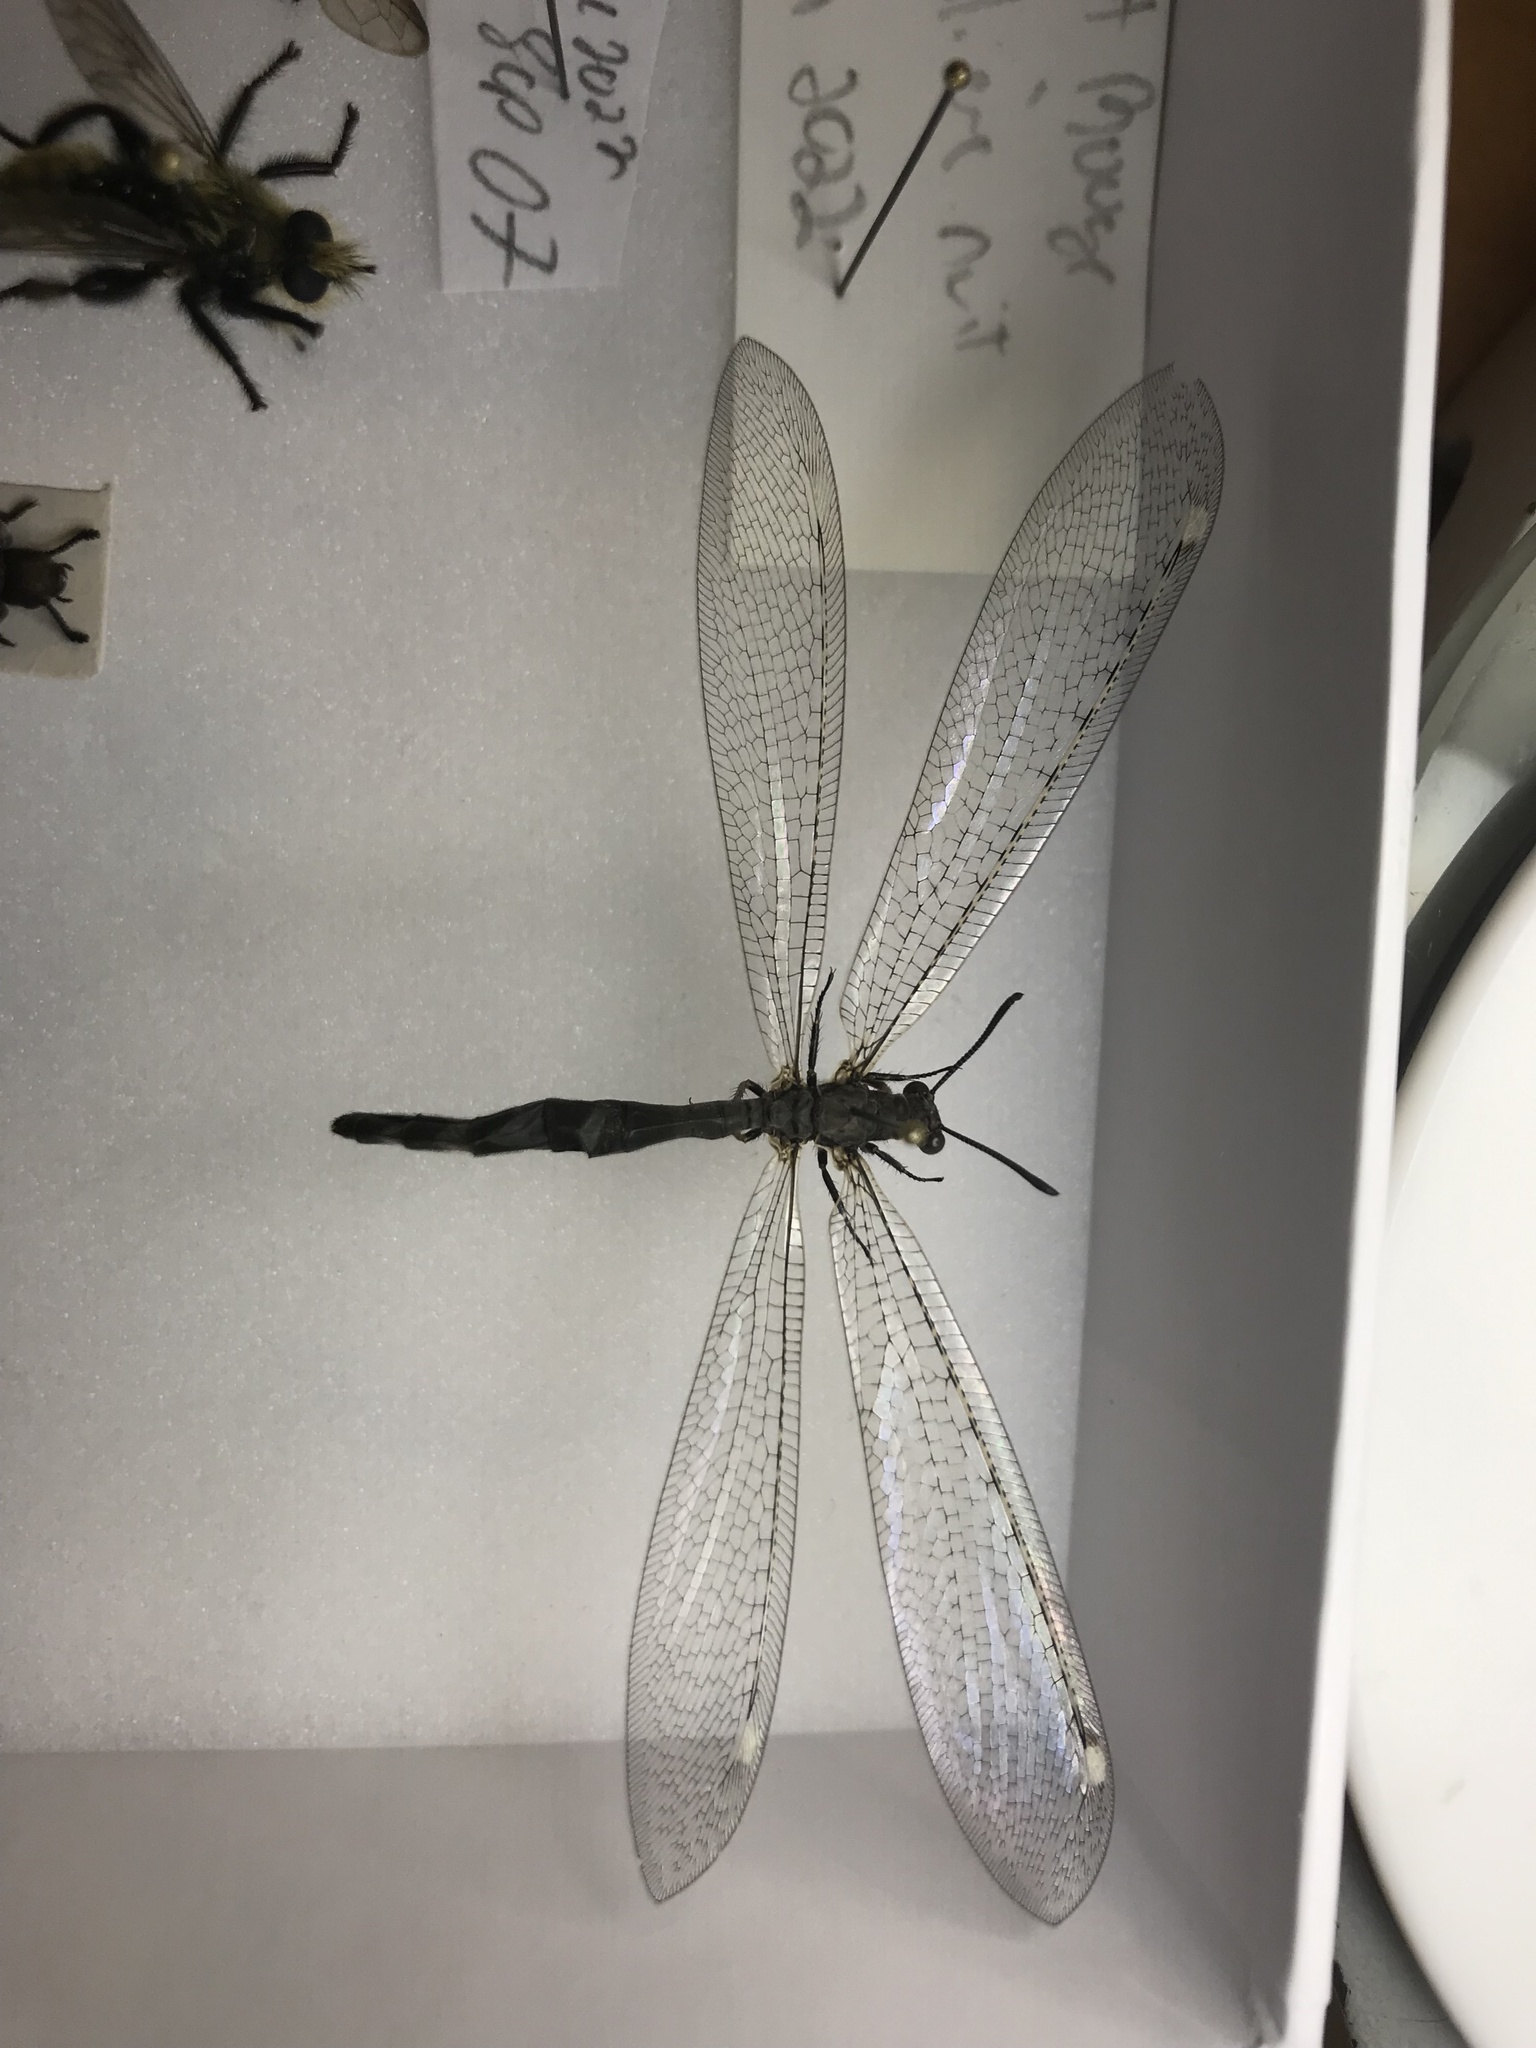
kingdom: Animalia
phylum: Arthropoda
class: Insecta
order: Neuroptera
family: Myrmeleontidae
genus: Myrmeleon
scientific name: Myrmeleon immaculatus
